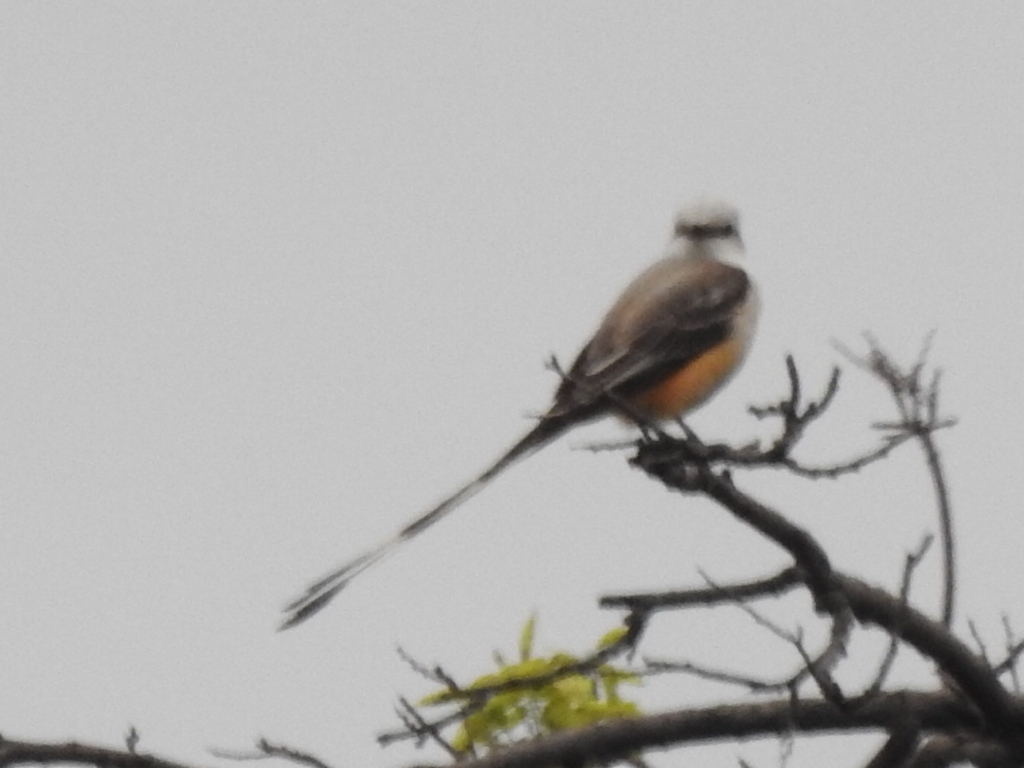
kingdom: Animalia
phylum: Chordata
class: Aves
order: Passeriformes
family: Tyrannidae
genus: Tyrannus
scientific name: Tyrannus forficatus
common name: Scissor-tailed flycatcher
